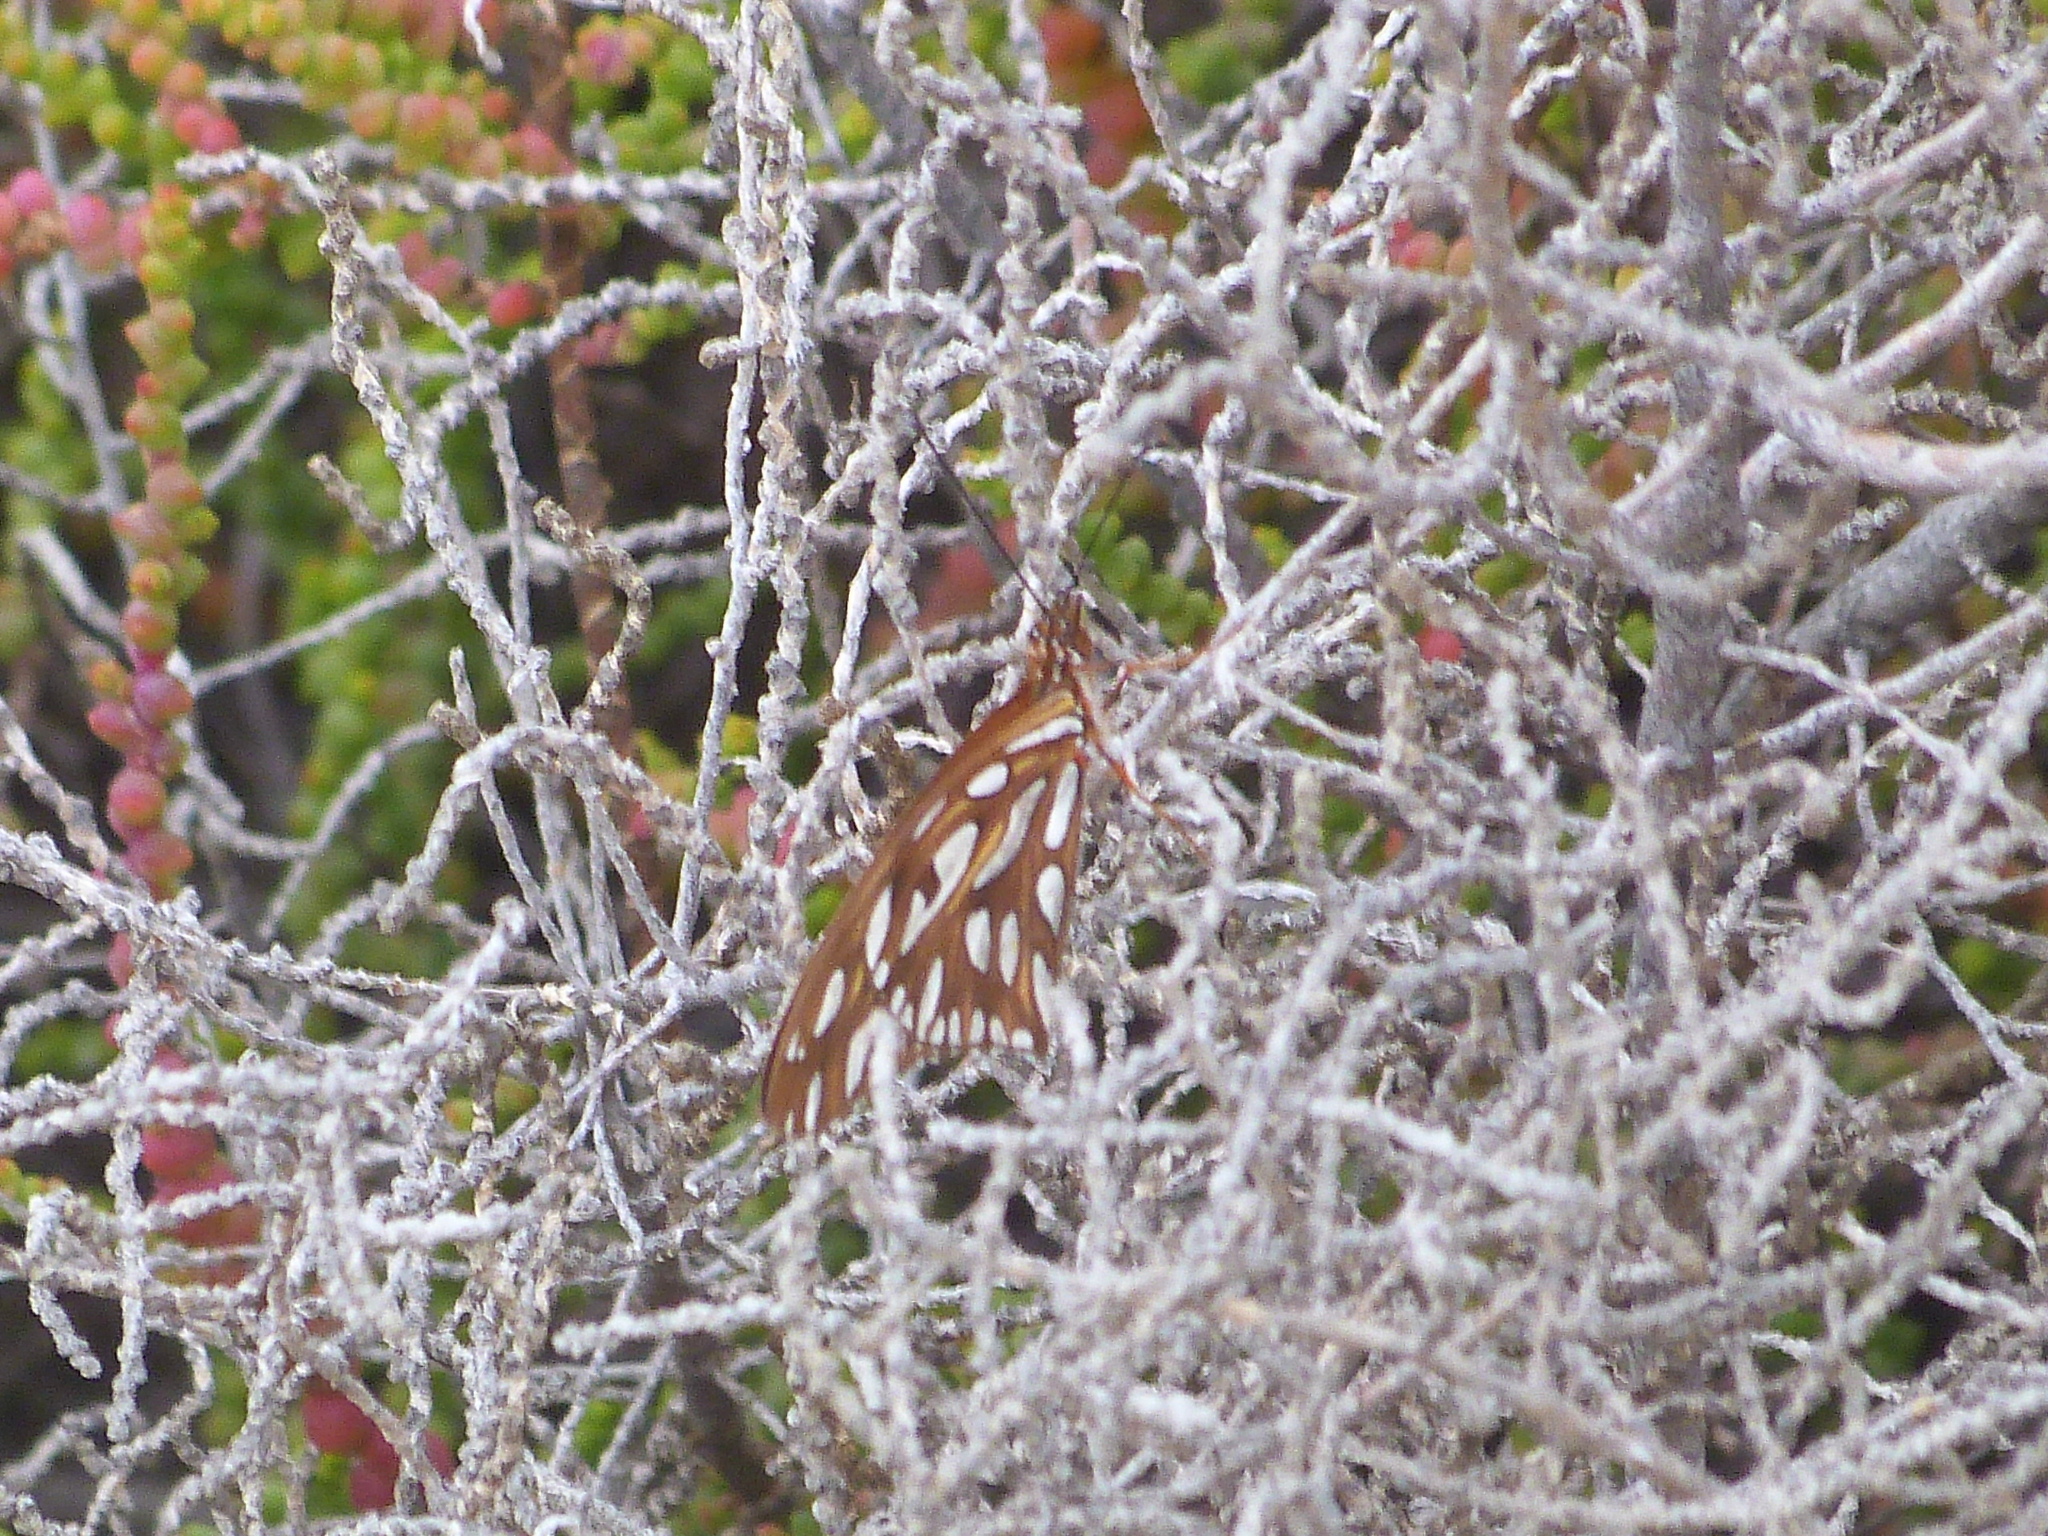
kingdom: Animalia
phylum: Arthropoda
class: Insecta
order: Lepidoptera
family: Nymphalidae
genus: Dione
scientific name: Dione vanillae
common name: Gulf fritillary
